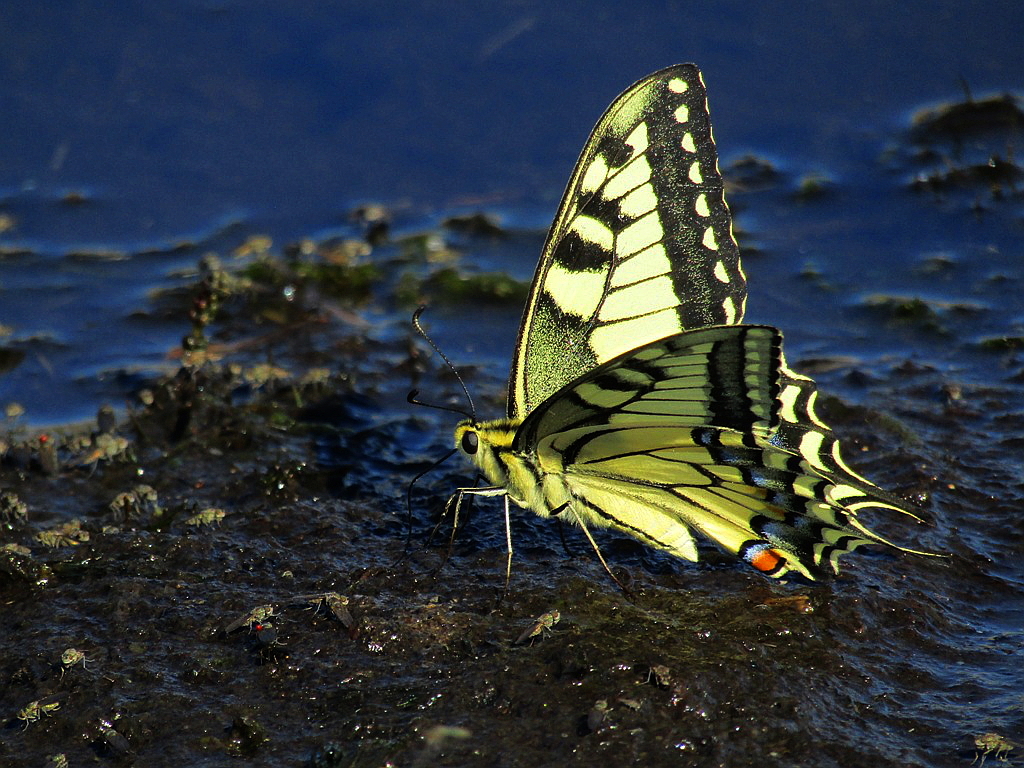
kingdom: Animalia
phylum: Arthropoda
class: Insecta
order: Lepidoptera
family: Papilionidae
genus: Papilio
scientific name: Papilio machaon
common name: Swallowtail
